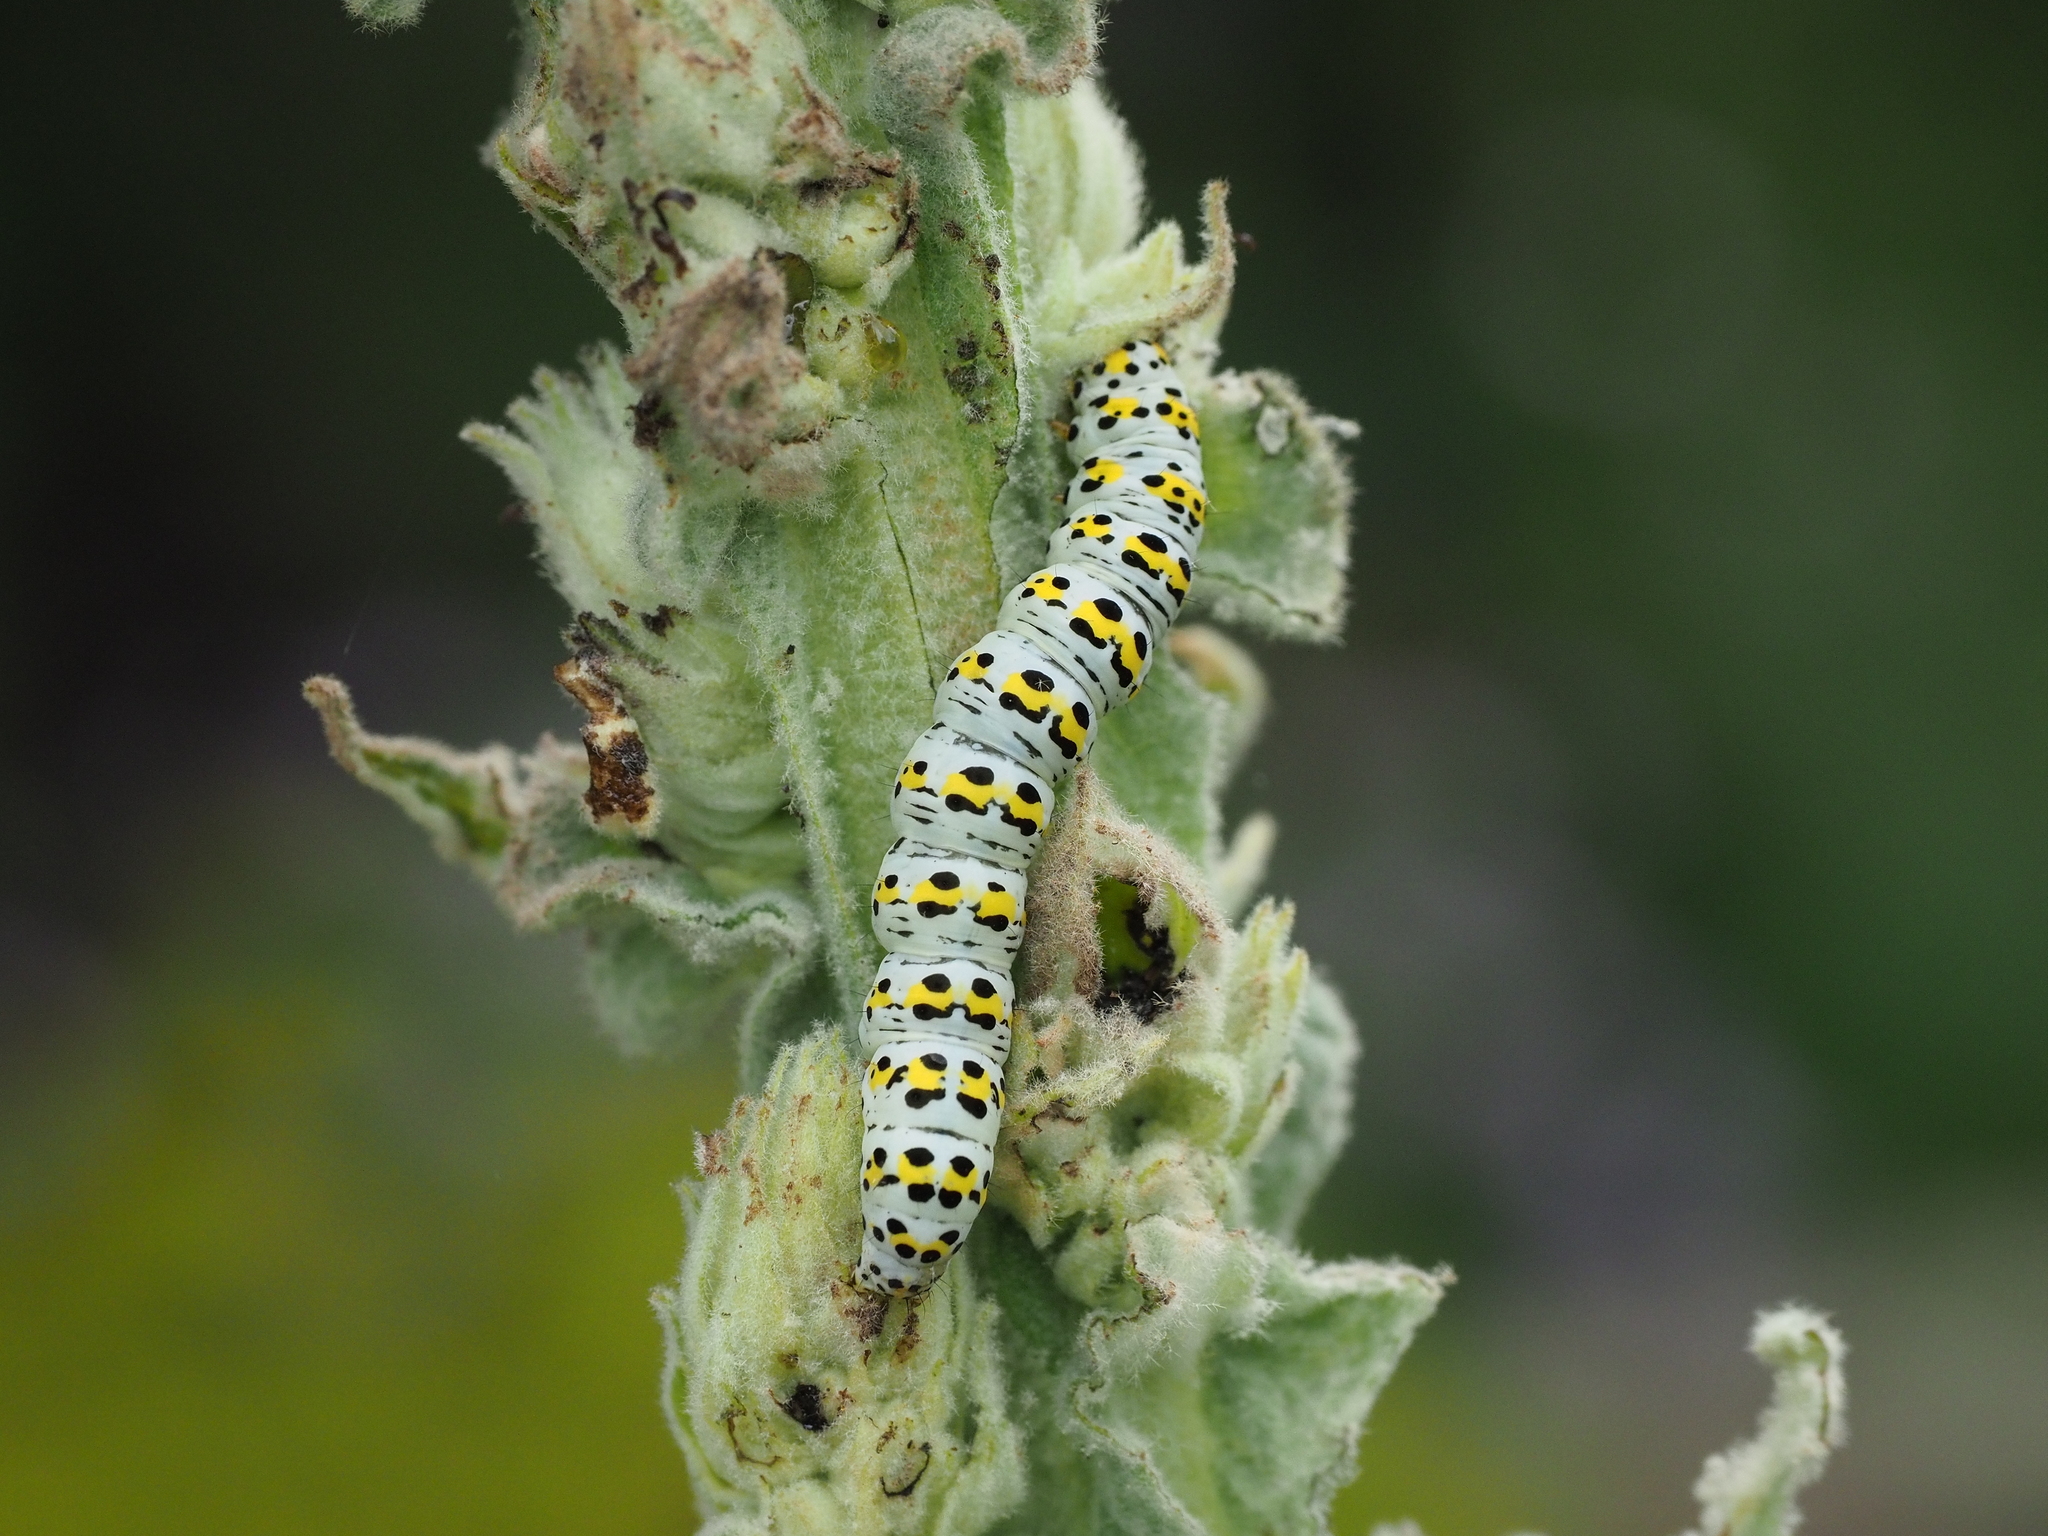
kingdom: Animalia
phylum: Arthropoda
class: Insecta
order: Lepidoptera
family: Noctuidae
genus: Cucullia
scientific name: Cucullia verbasci
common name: Mullein
